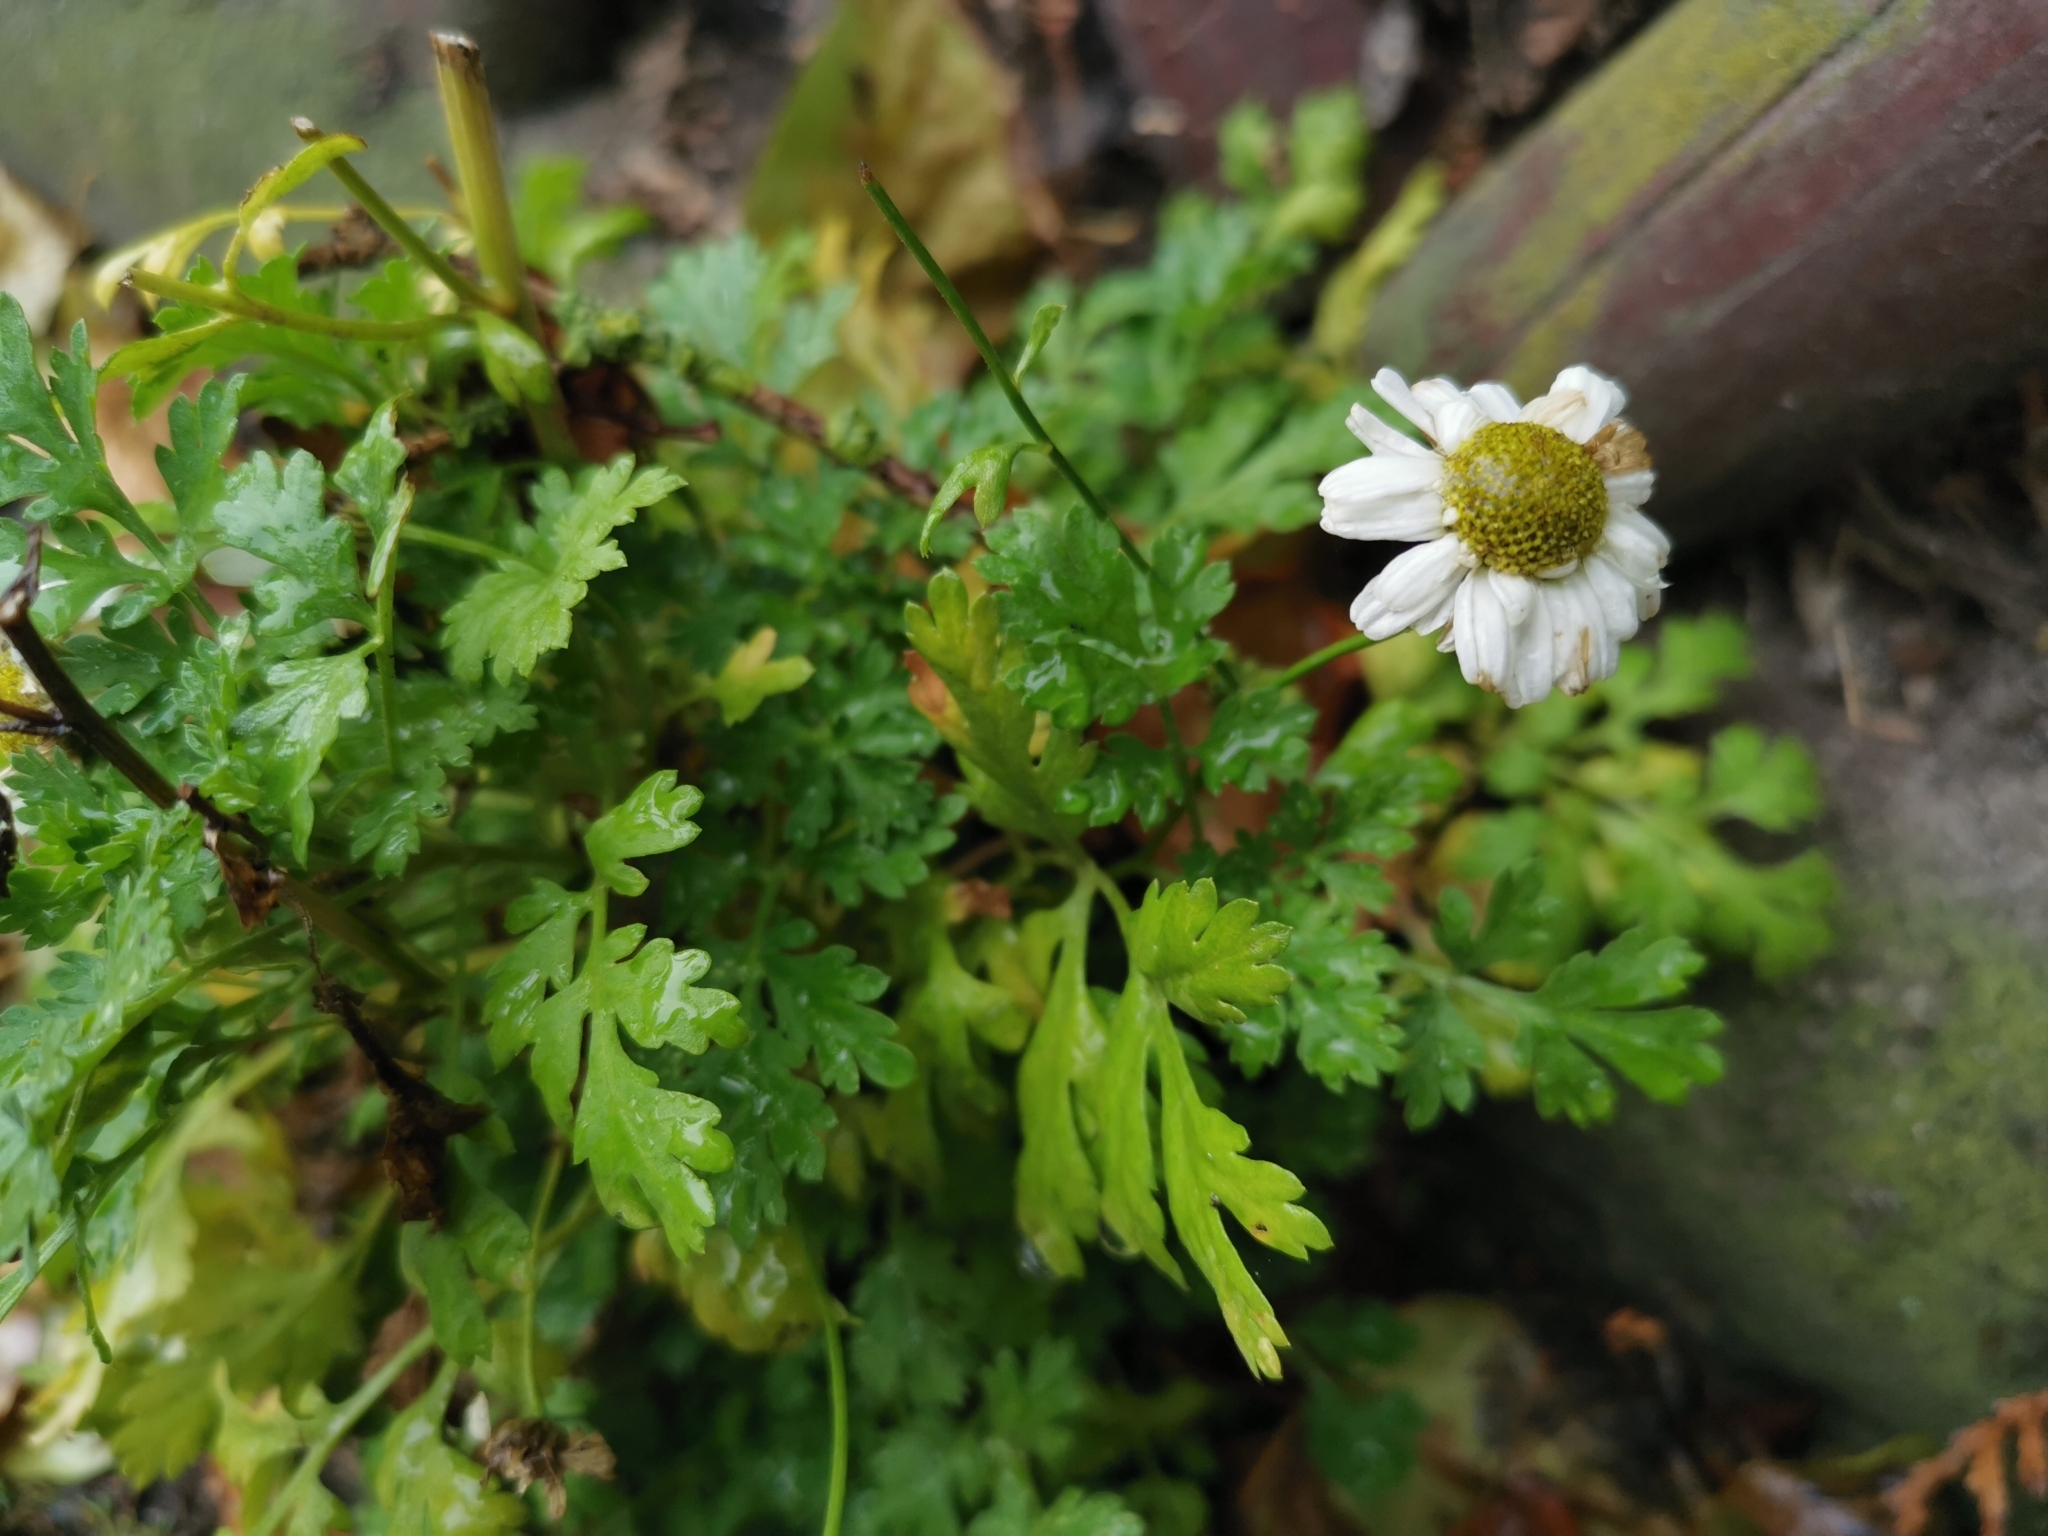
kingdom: Plantae
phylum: Tracheophyta
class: Magnoliopsida
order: Asterales
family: Asteraceae
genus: Tanacetum
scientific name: Tanacetum parthenium
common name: Feverfew
